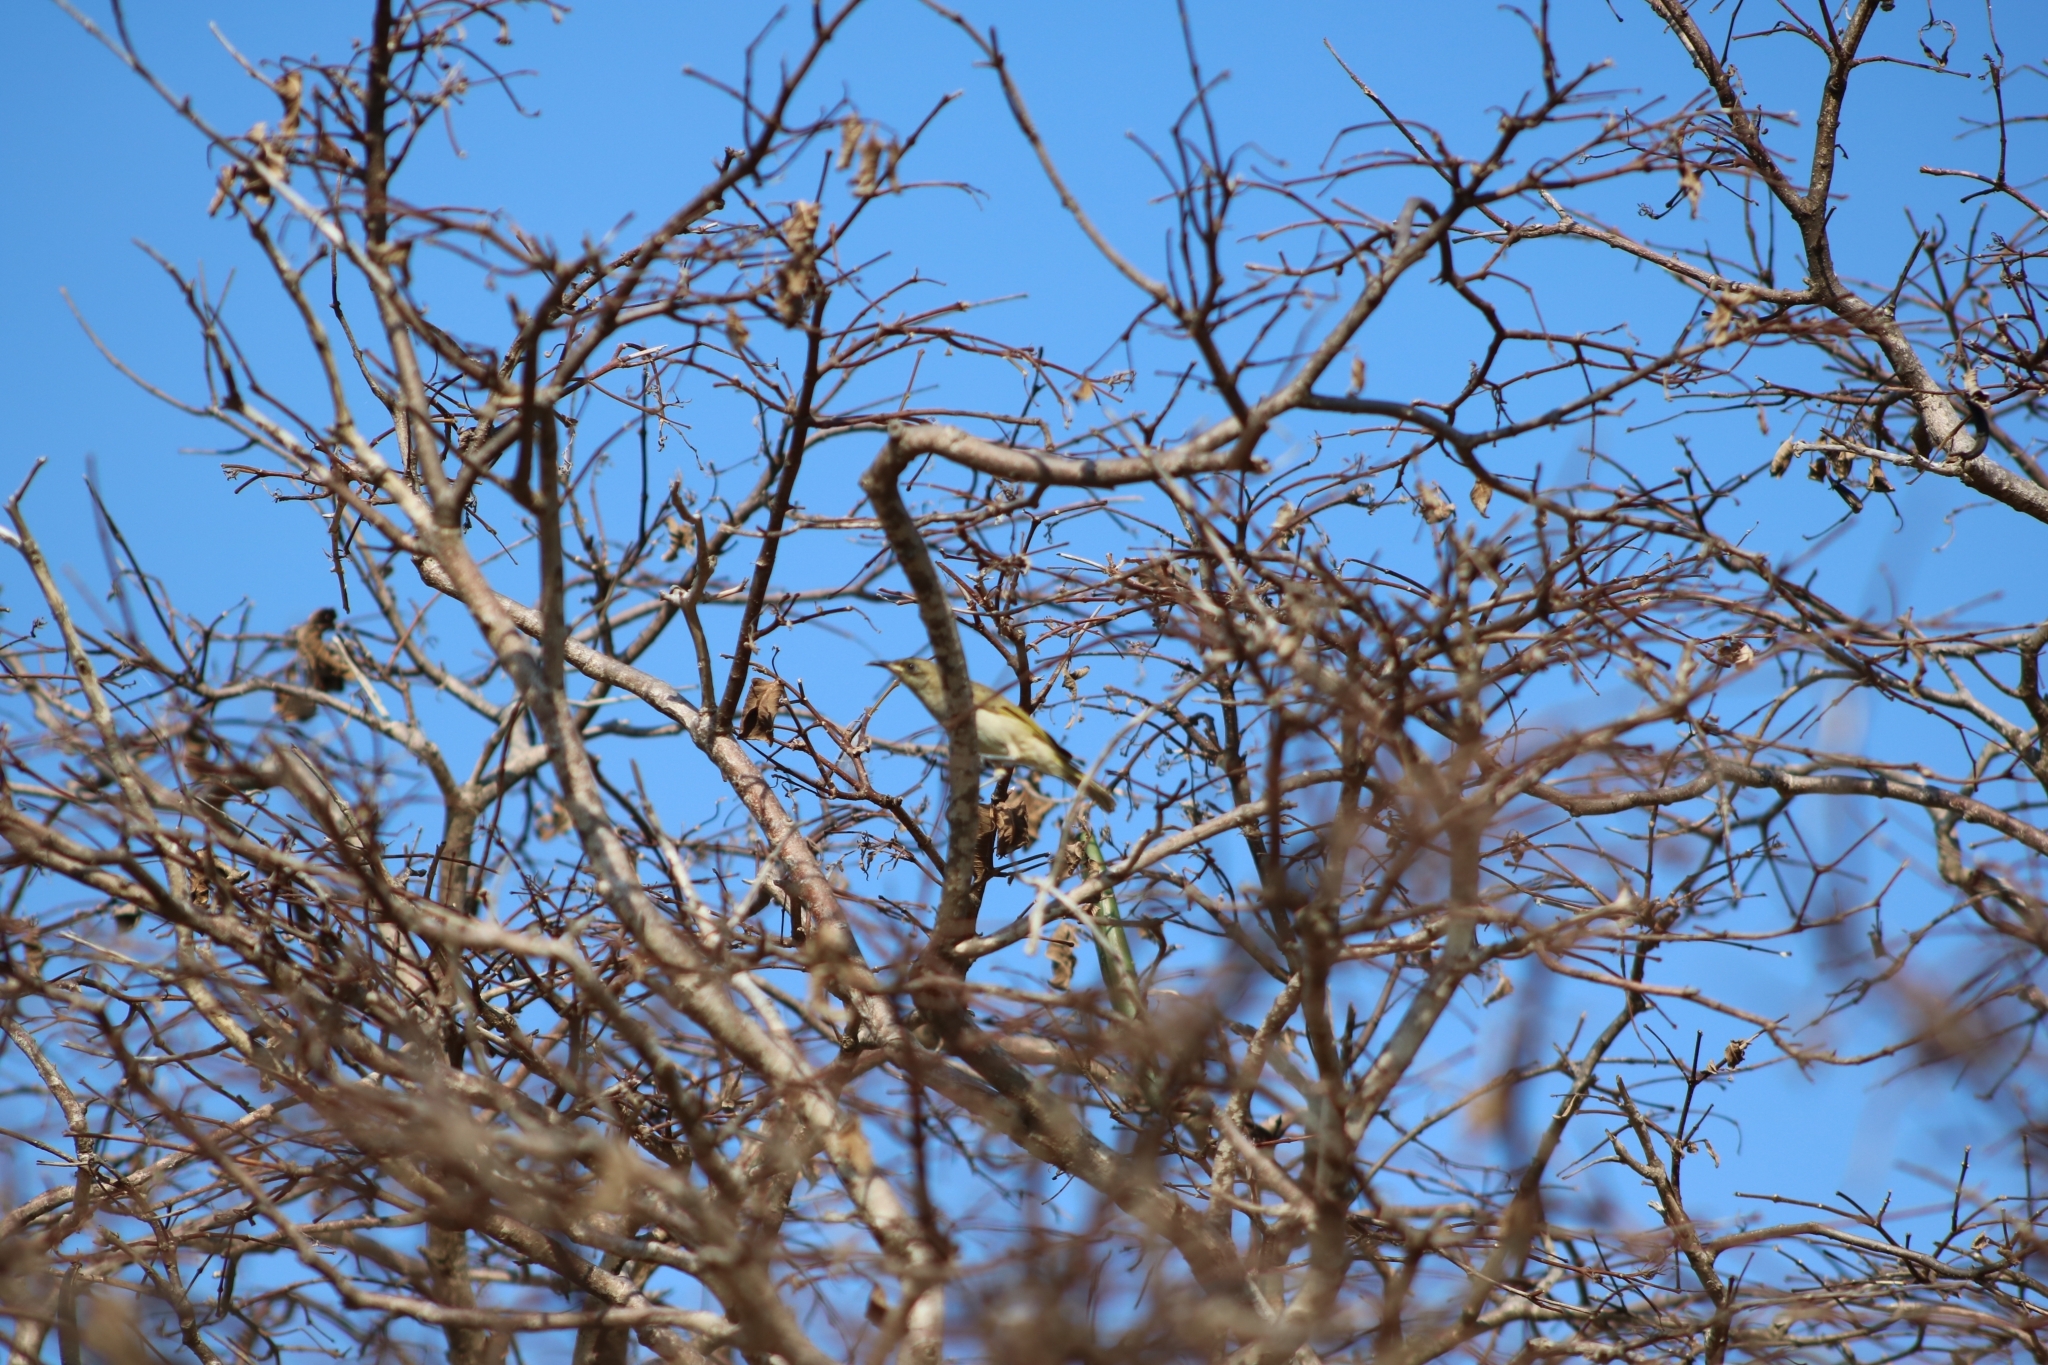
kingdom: Animalia
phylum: Chordata
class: Aves
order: Passeriformes
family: Meliphagidae
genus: Lichmera
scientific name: Lichmera indistincta
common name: Brown honeyeater
